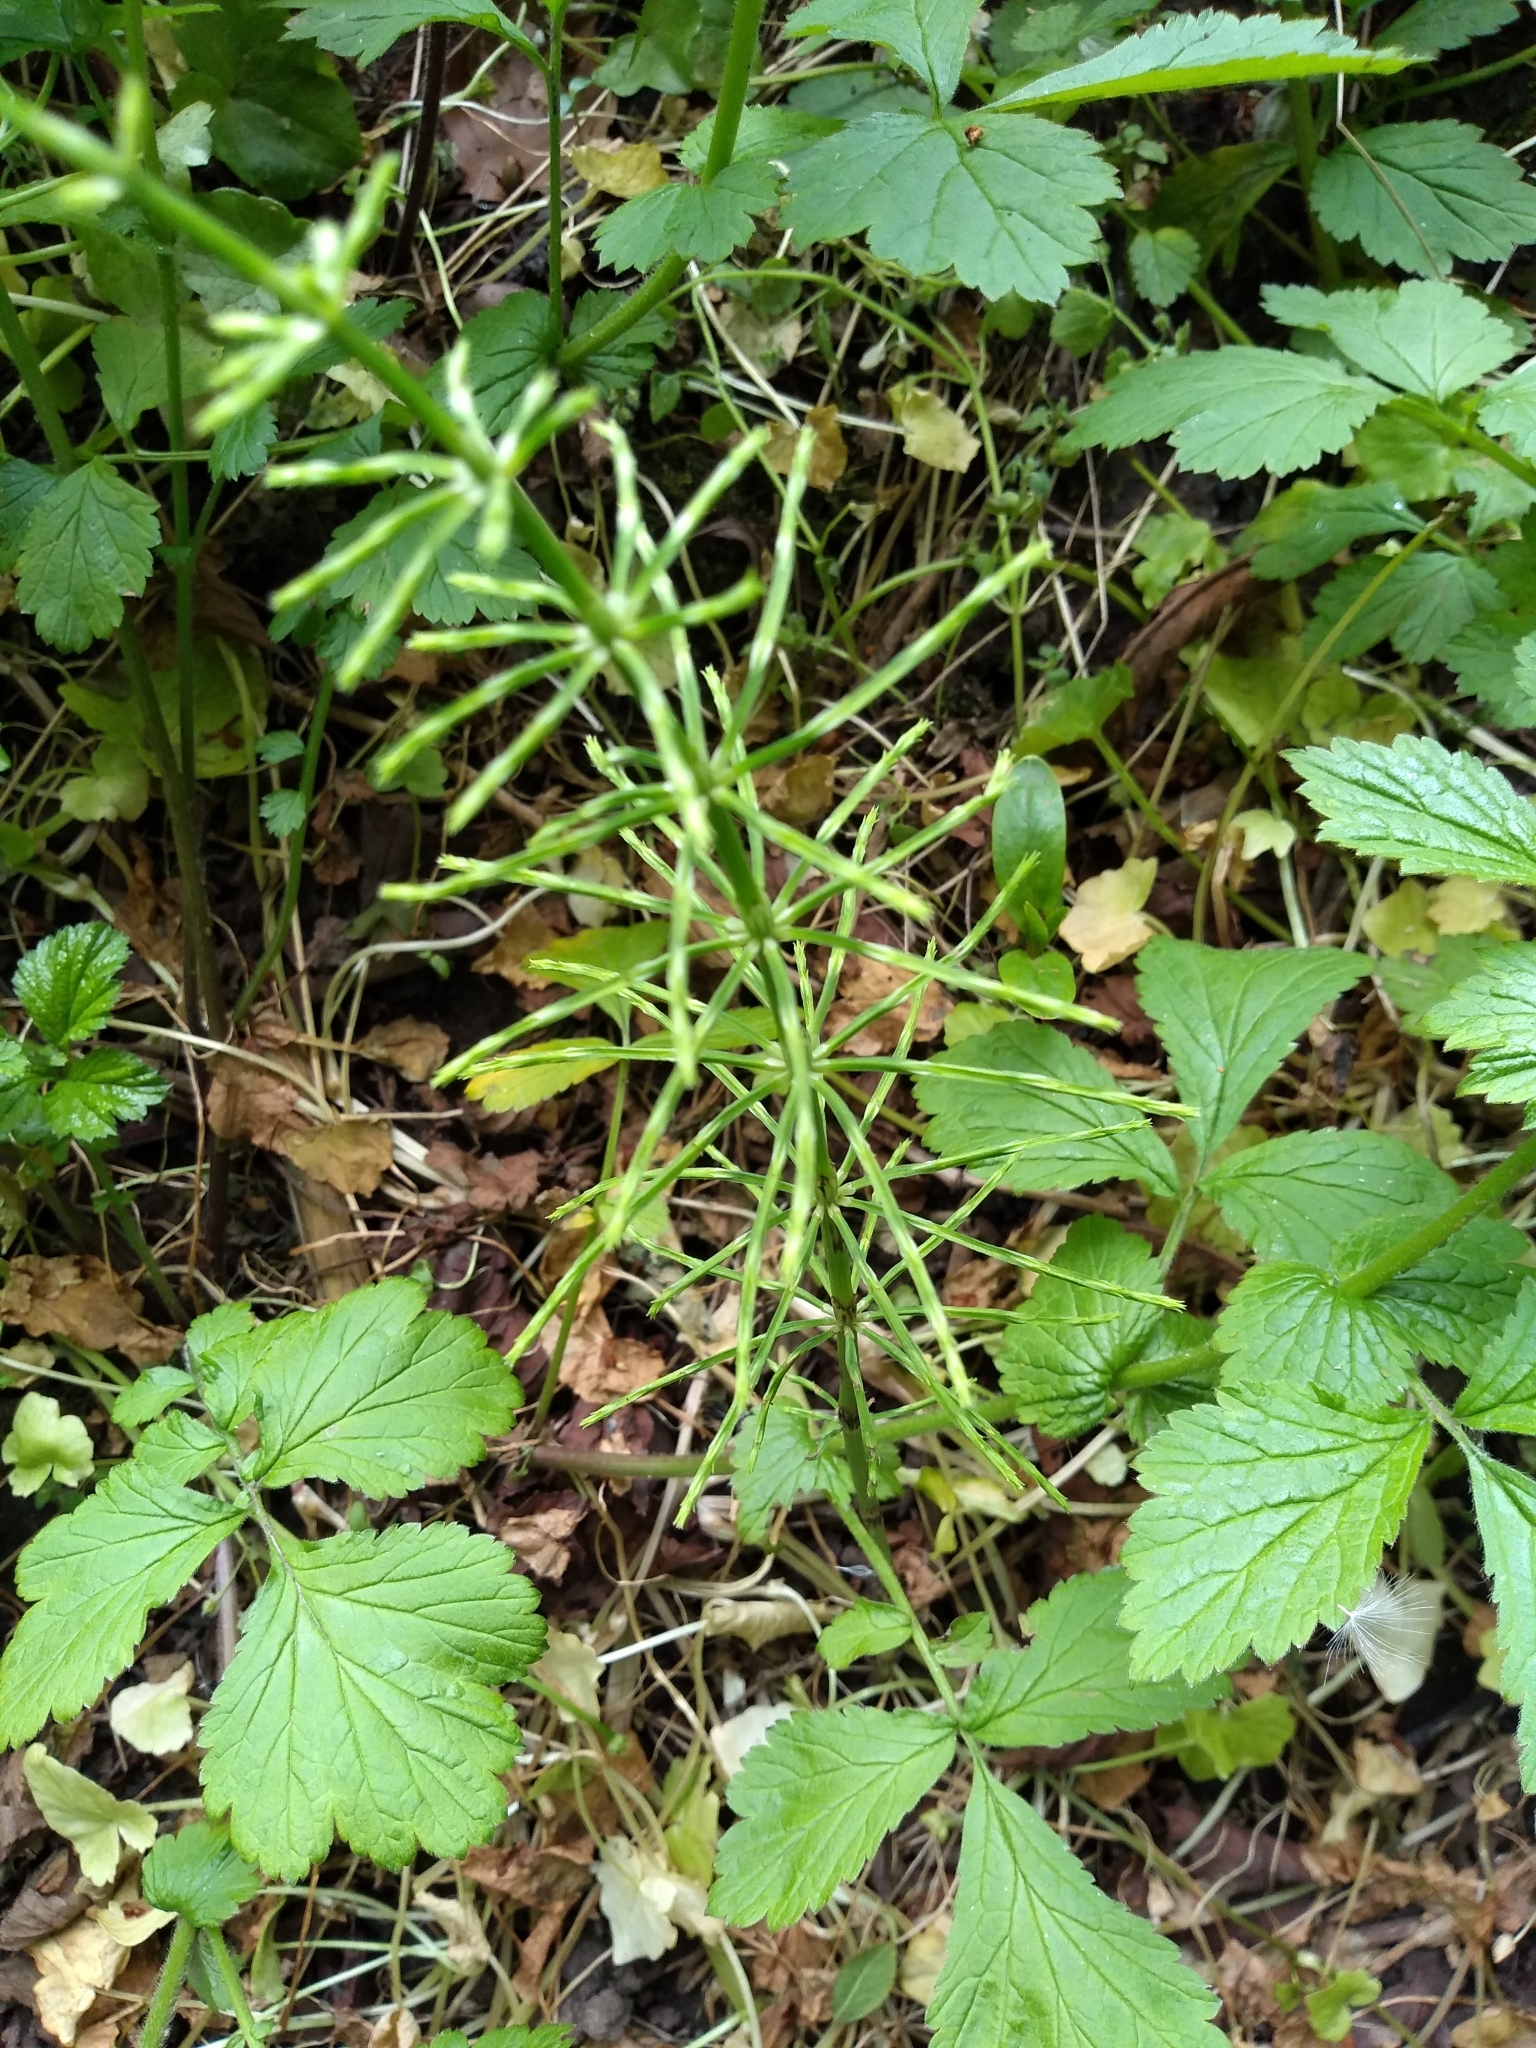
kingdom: Plantae
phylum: Tracheophyta
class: Polypodiopsida
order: Equisetales
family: Equisetaceae
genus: Equisetum
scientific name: Equisetum arvense
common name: Field horsetail
